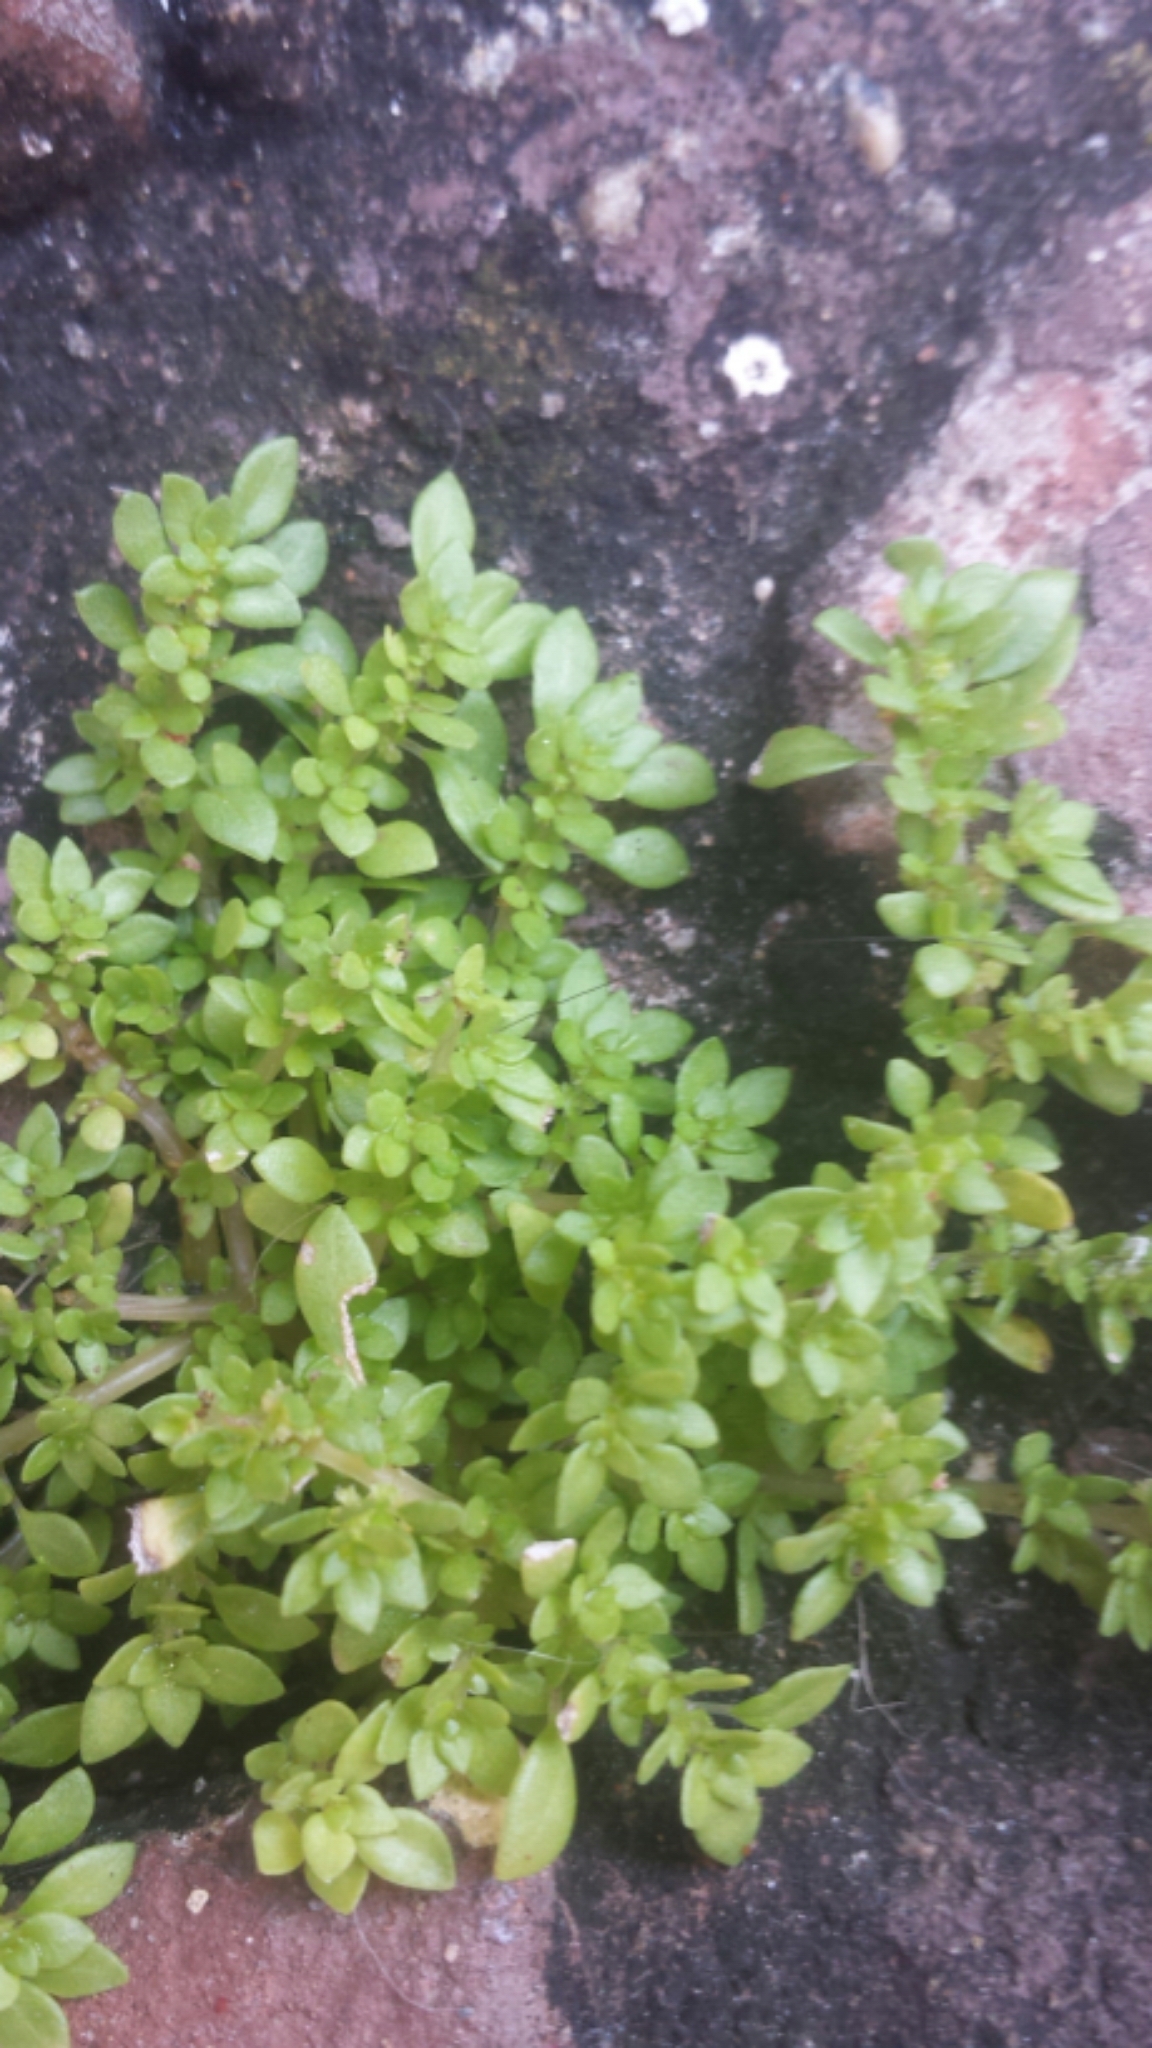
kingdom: Plantae
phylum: Tracheophyta
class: Magnoliopsida
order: Rosales
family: Urticaceae
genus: Pilea
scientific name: Pilea microphylla
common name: Artillery-plant
